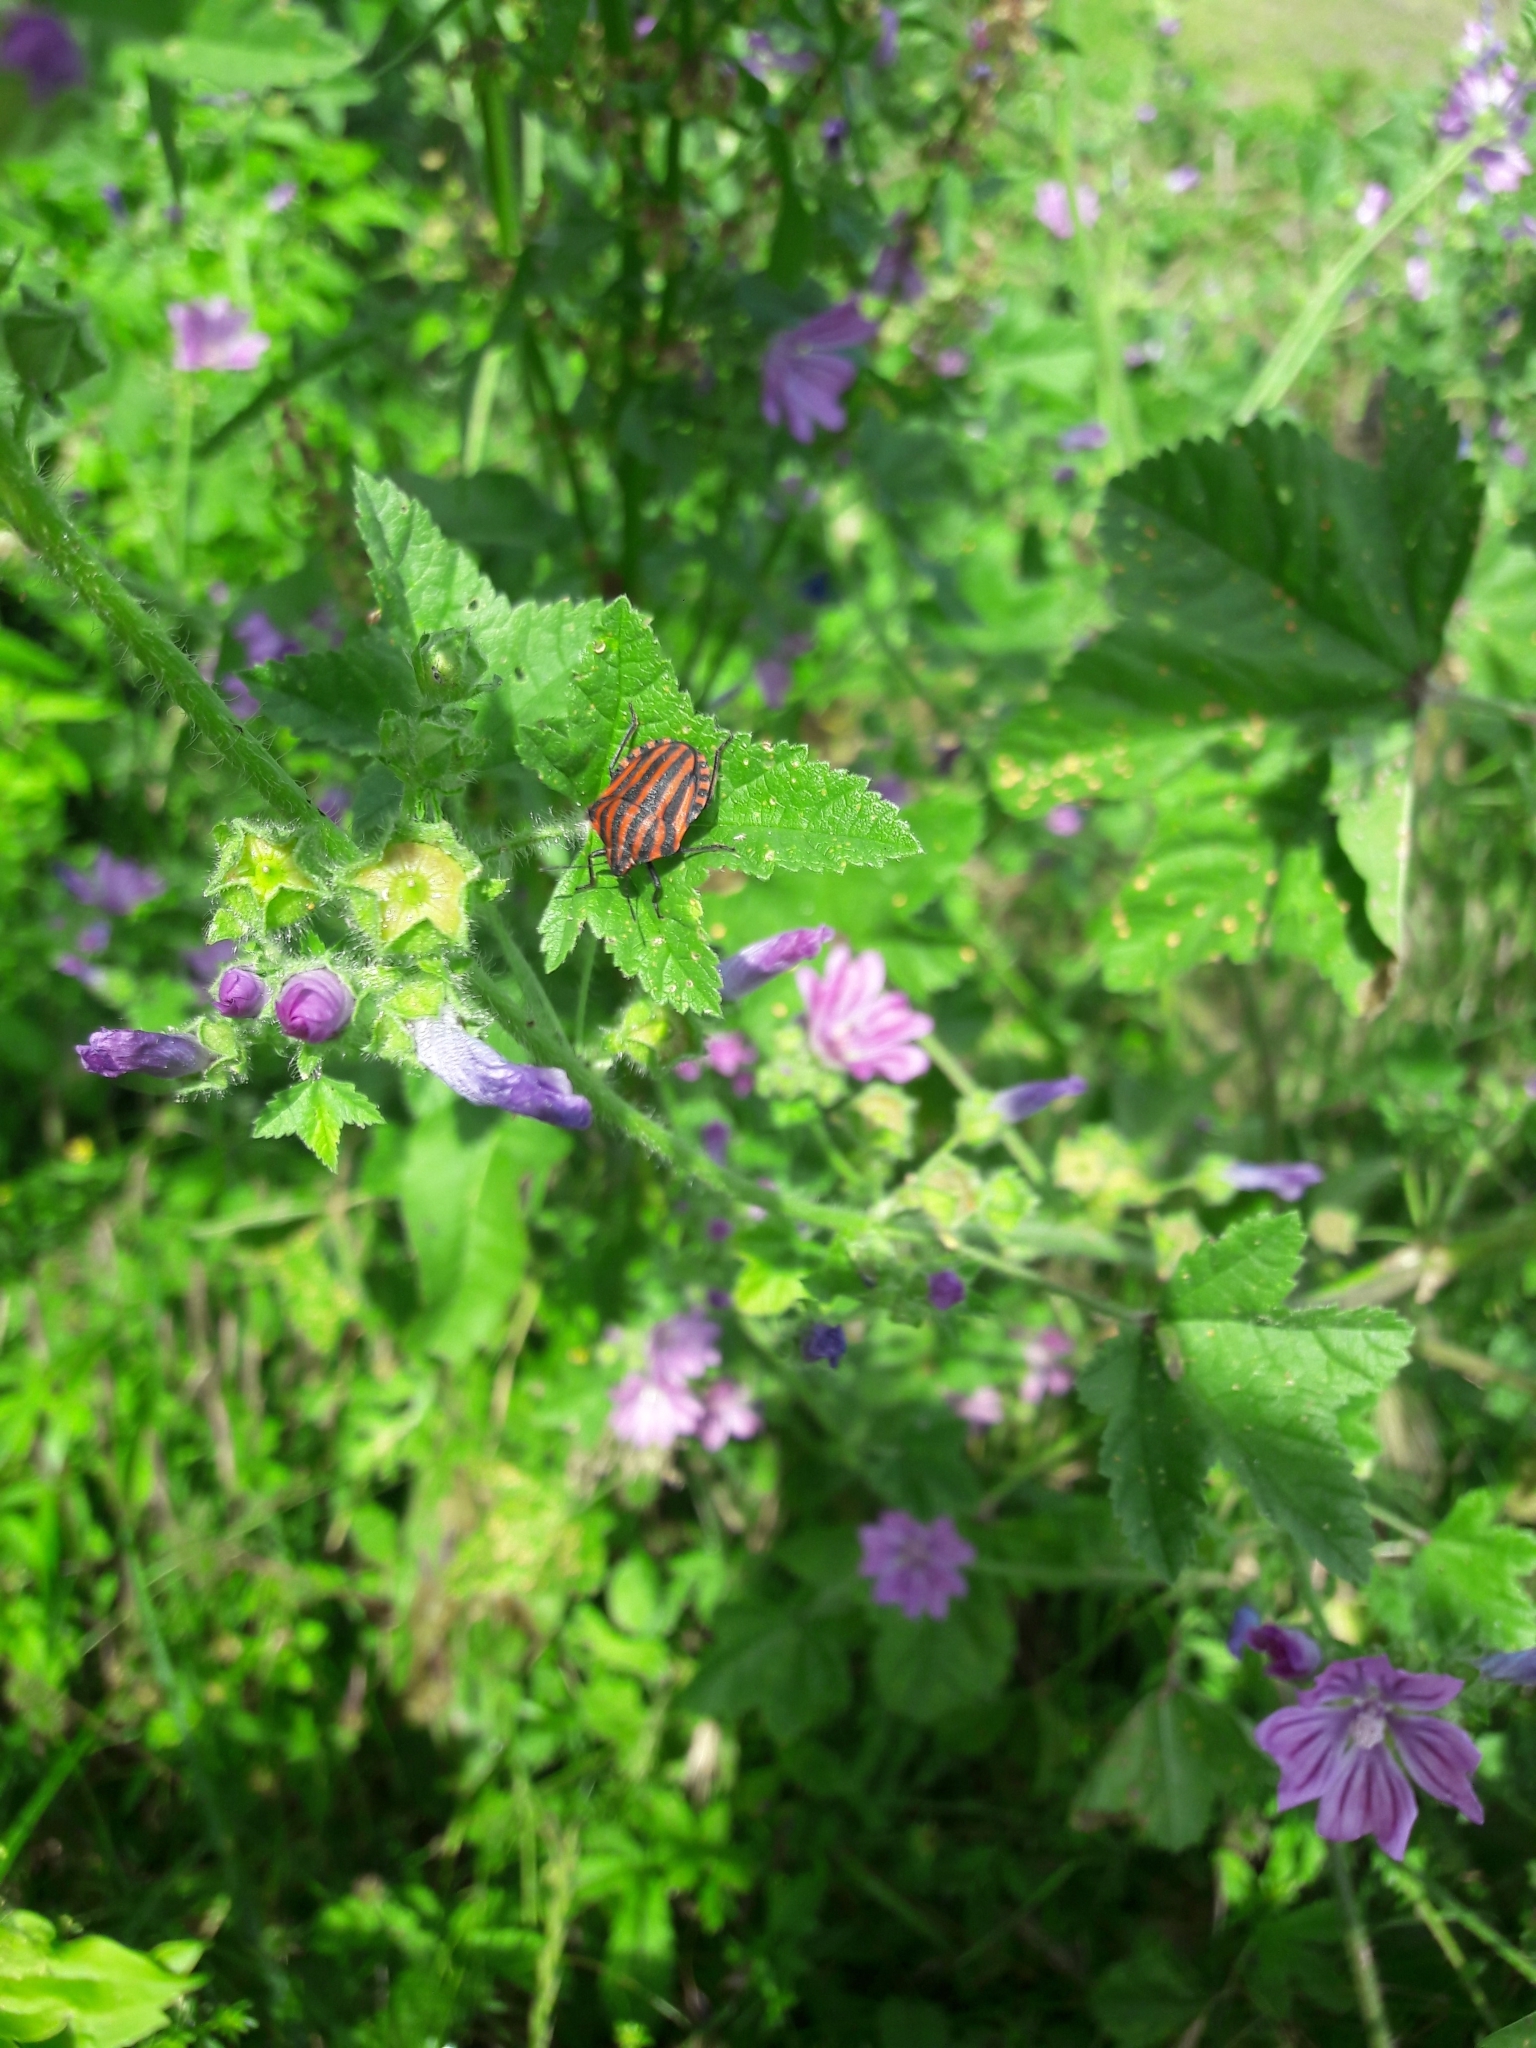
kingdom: Animalia
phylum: Arthropoda
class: Insecta
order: Hemiptera
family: Pentatomidae
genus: Graphosoma
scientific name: Graphosoma italicum
